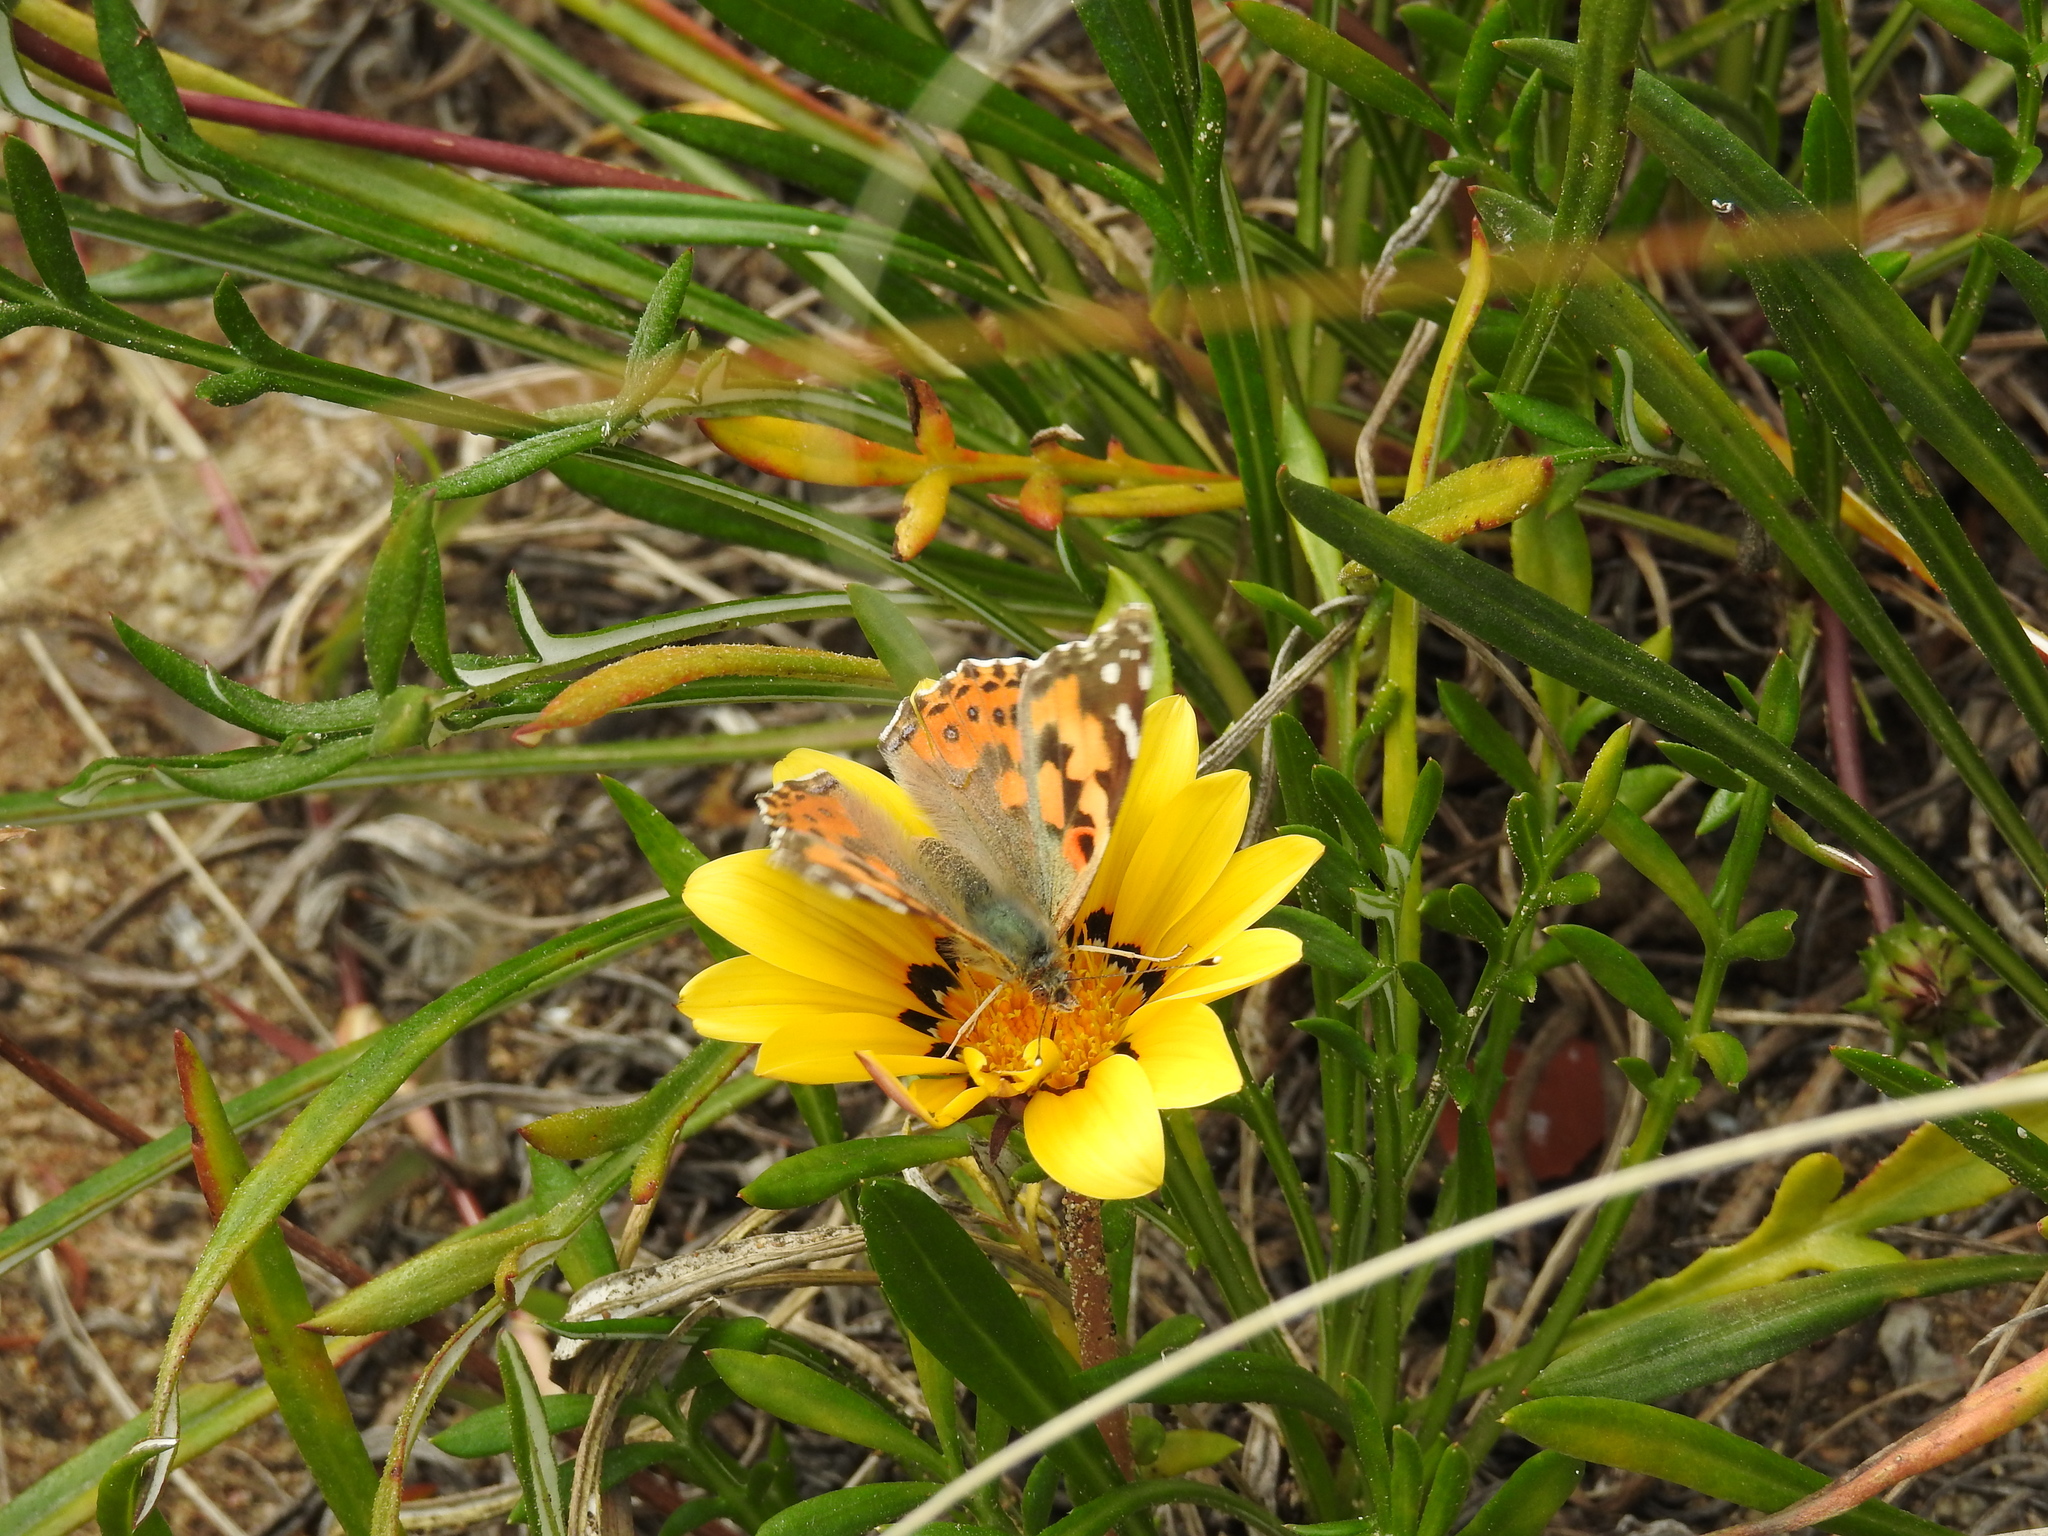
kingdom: Animalia
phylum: Arthropoda
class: Insecta
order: Lepidoptera
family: Nymphalidae
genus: Vanessa
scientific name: Vanessa cardui
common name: Painted lady
